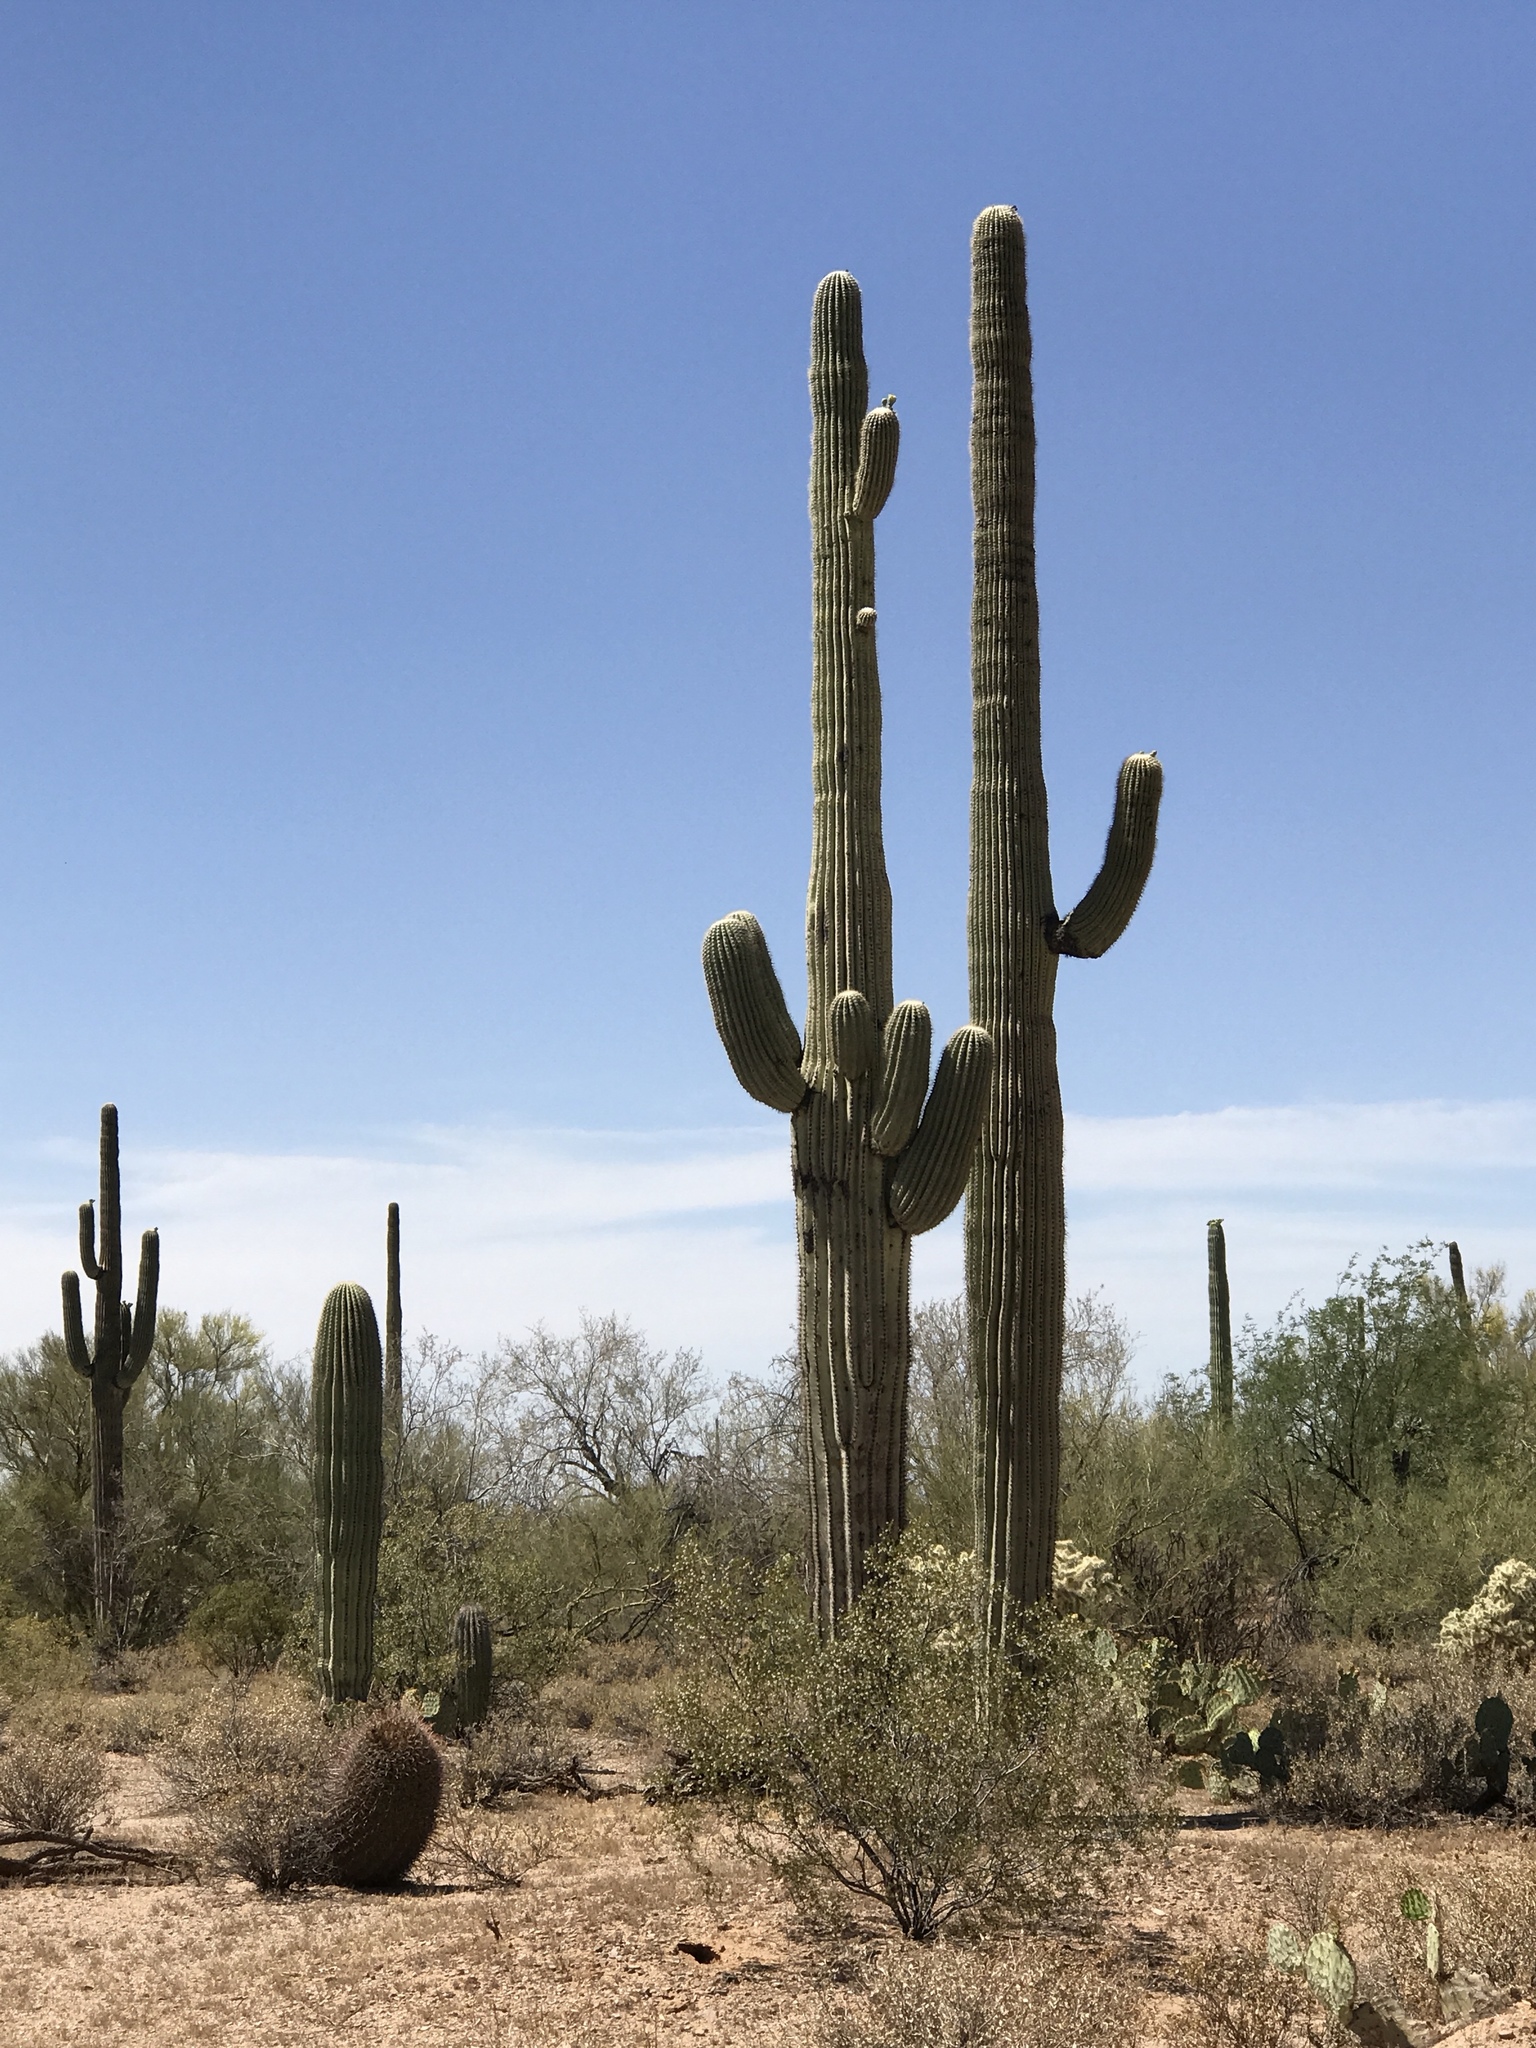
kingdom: Plantae
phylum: Tracheophyta
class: Magnoliopsida
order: Caryophyllales
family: Cactaceae
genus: Carnegiea
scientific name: Carnegiea gigantea
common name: Saguaro
